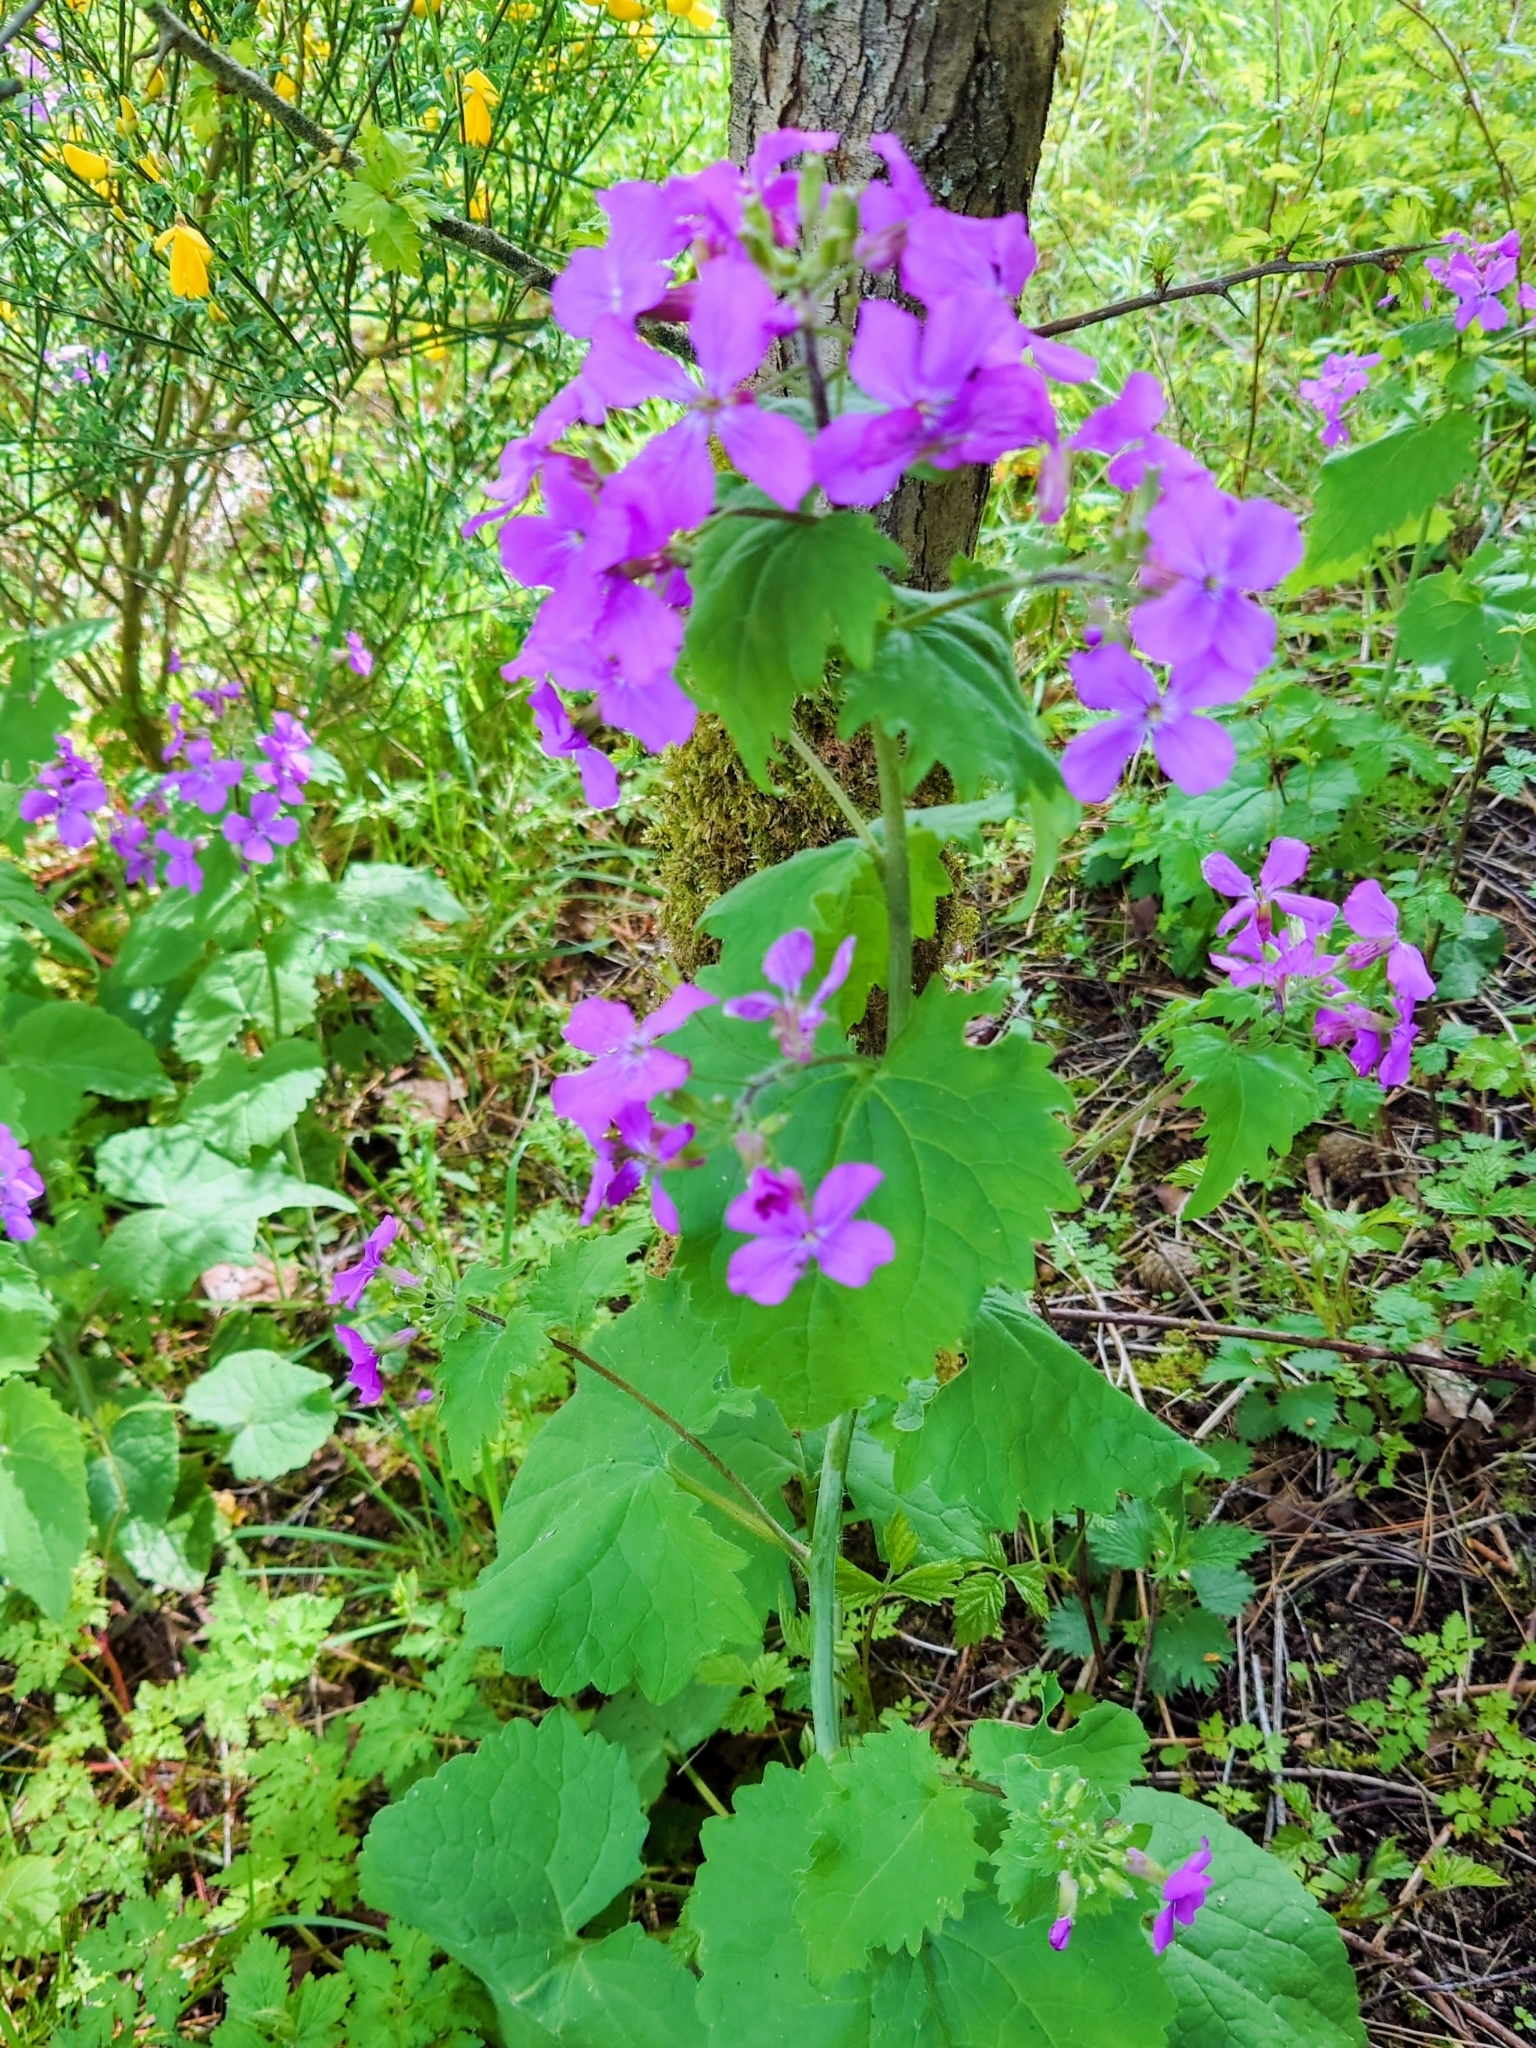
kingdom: Plantae
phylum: Tracheophyta
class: Magnoliopsida
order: Brassicales
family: Brassicaceae
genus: Lunaria
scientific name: Lunaria annua
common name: Honesty
